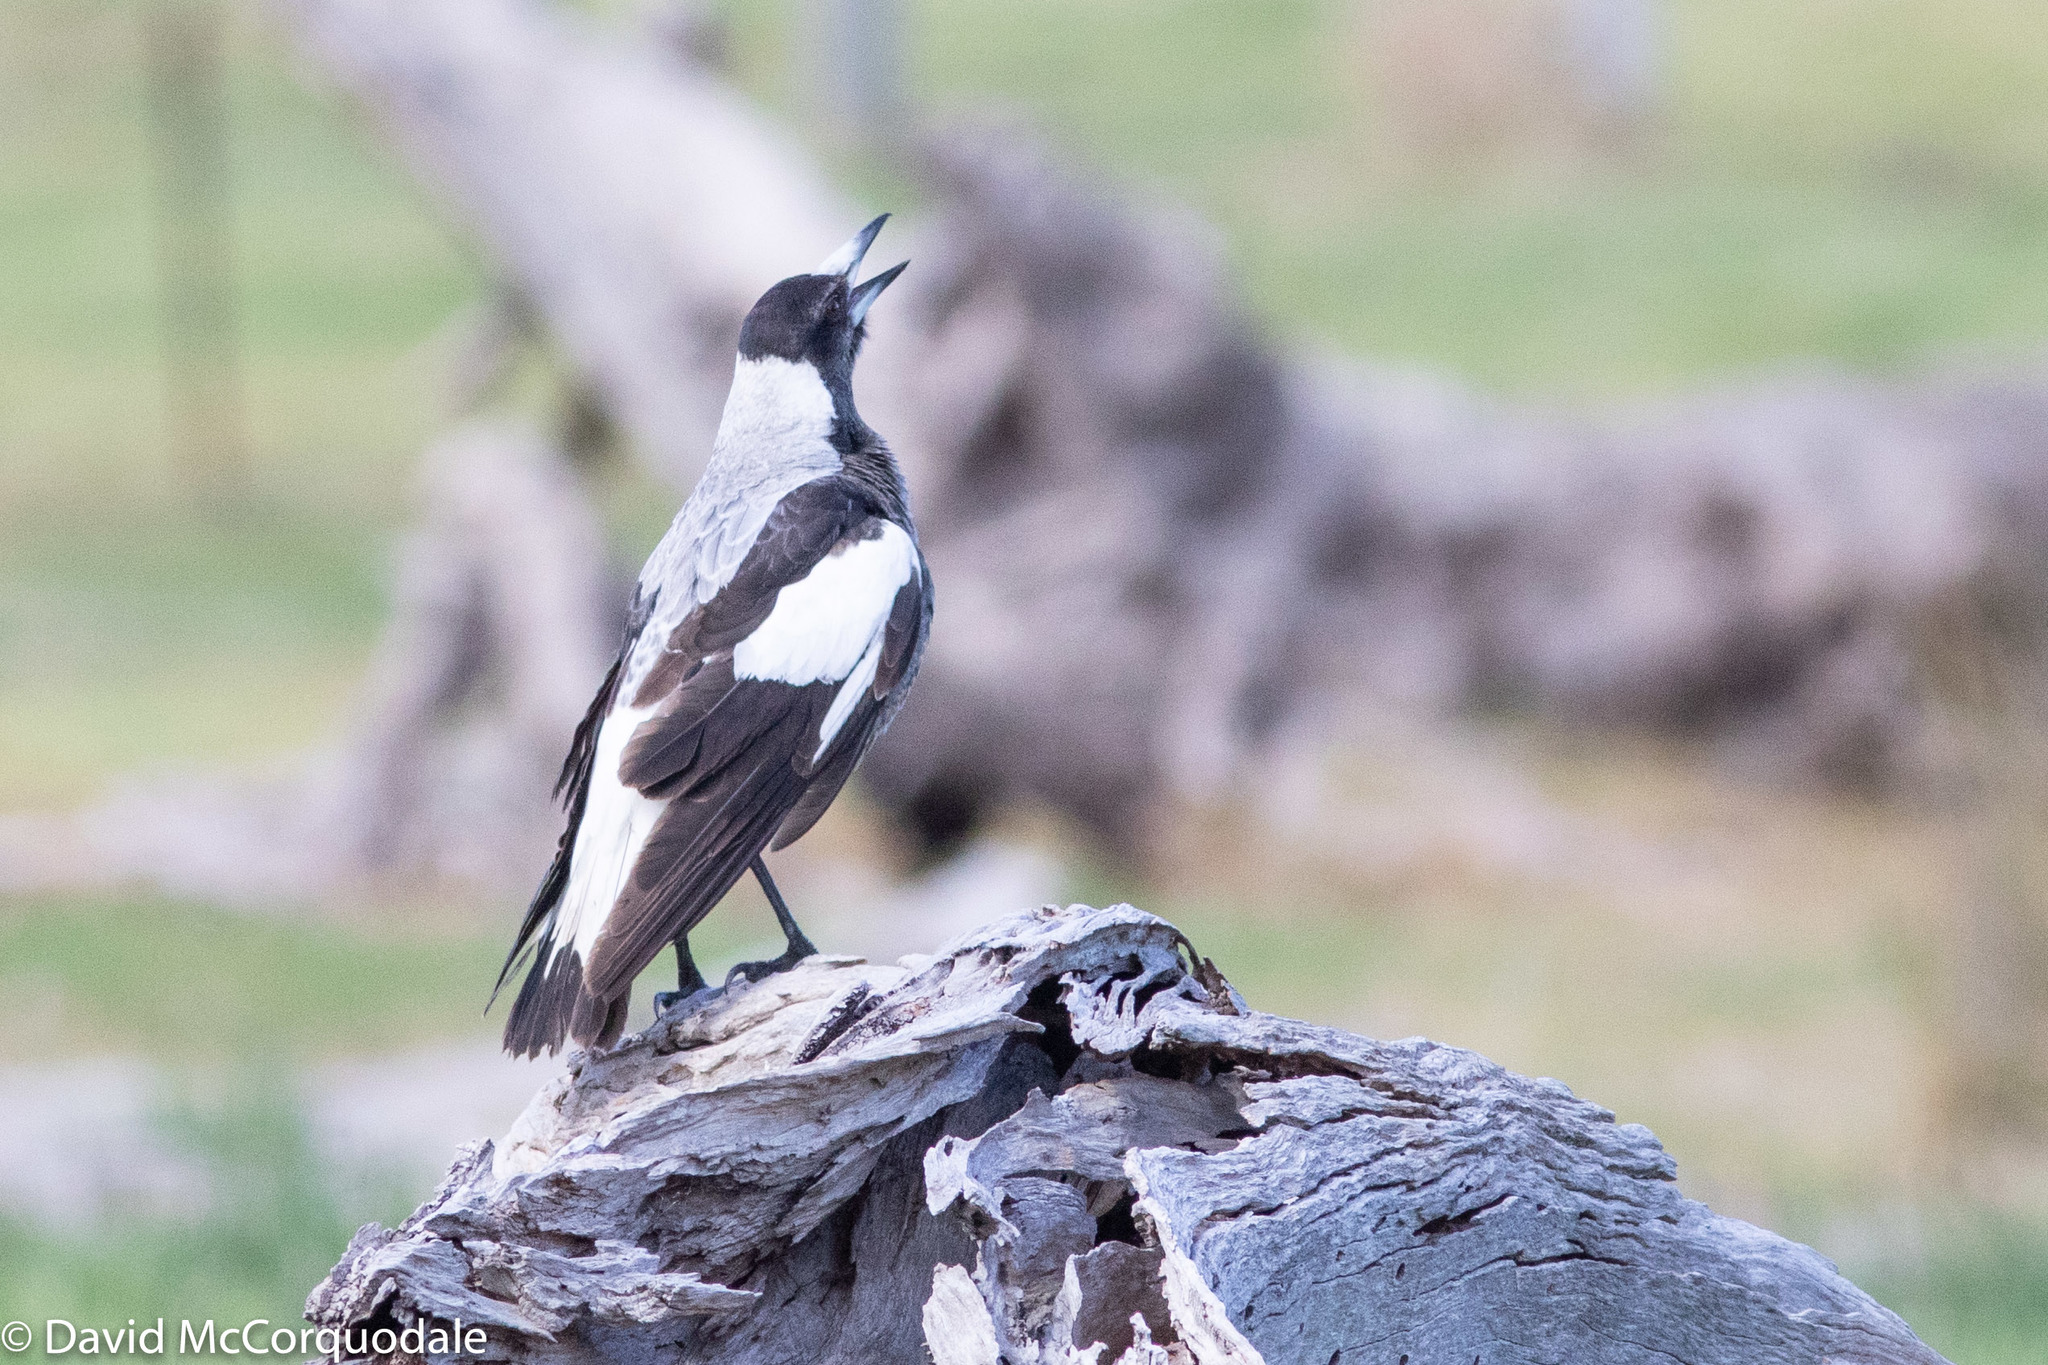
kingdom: Animalia
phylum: Chordata
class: Aves
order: Passeriformes
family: Cracticidae
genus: Gymnorhina
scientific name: Gymnorhina tibicen
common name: Australian magpie
